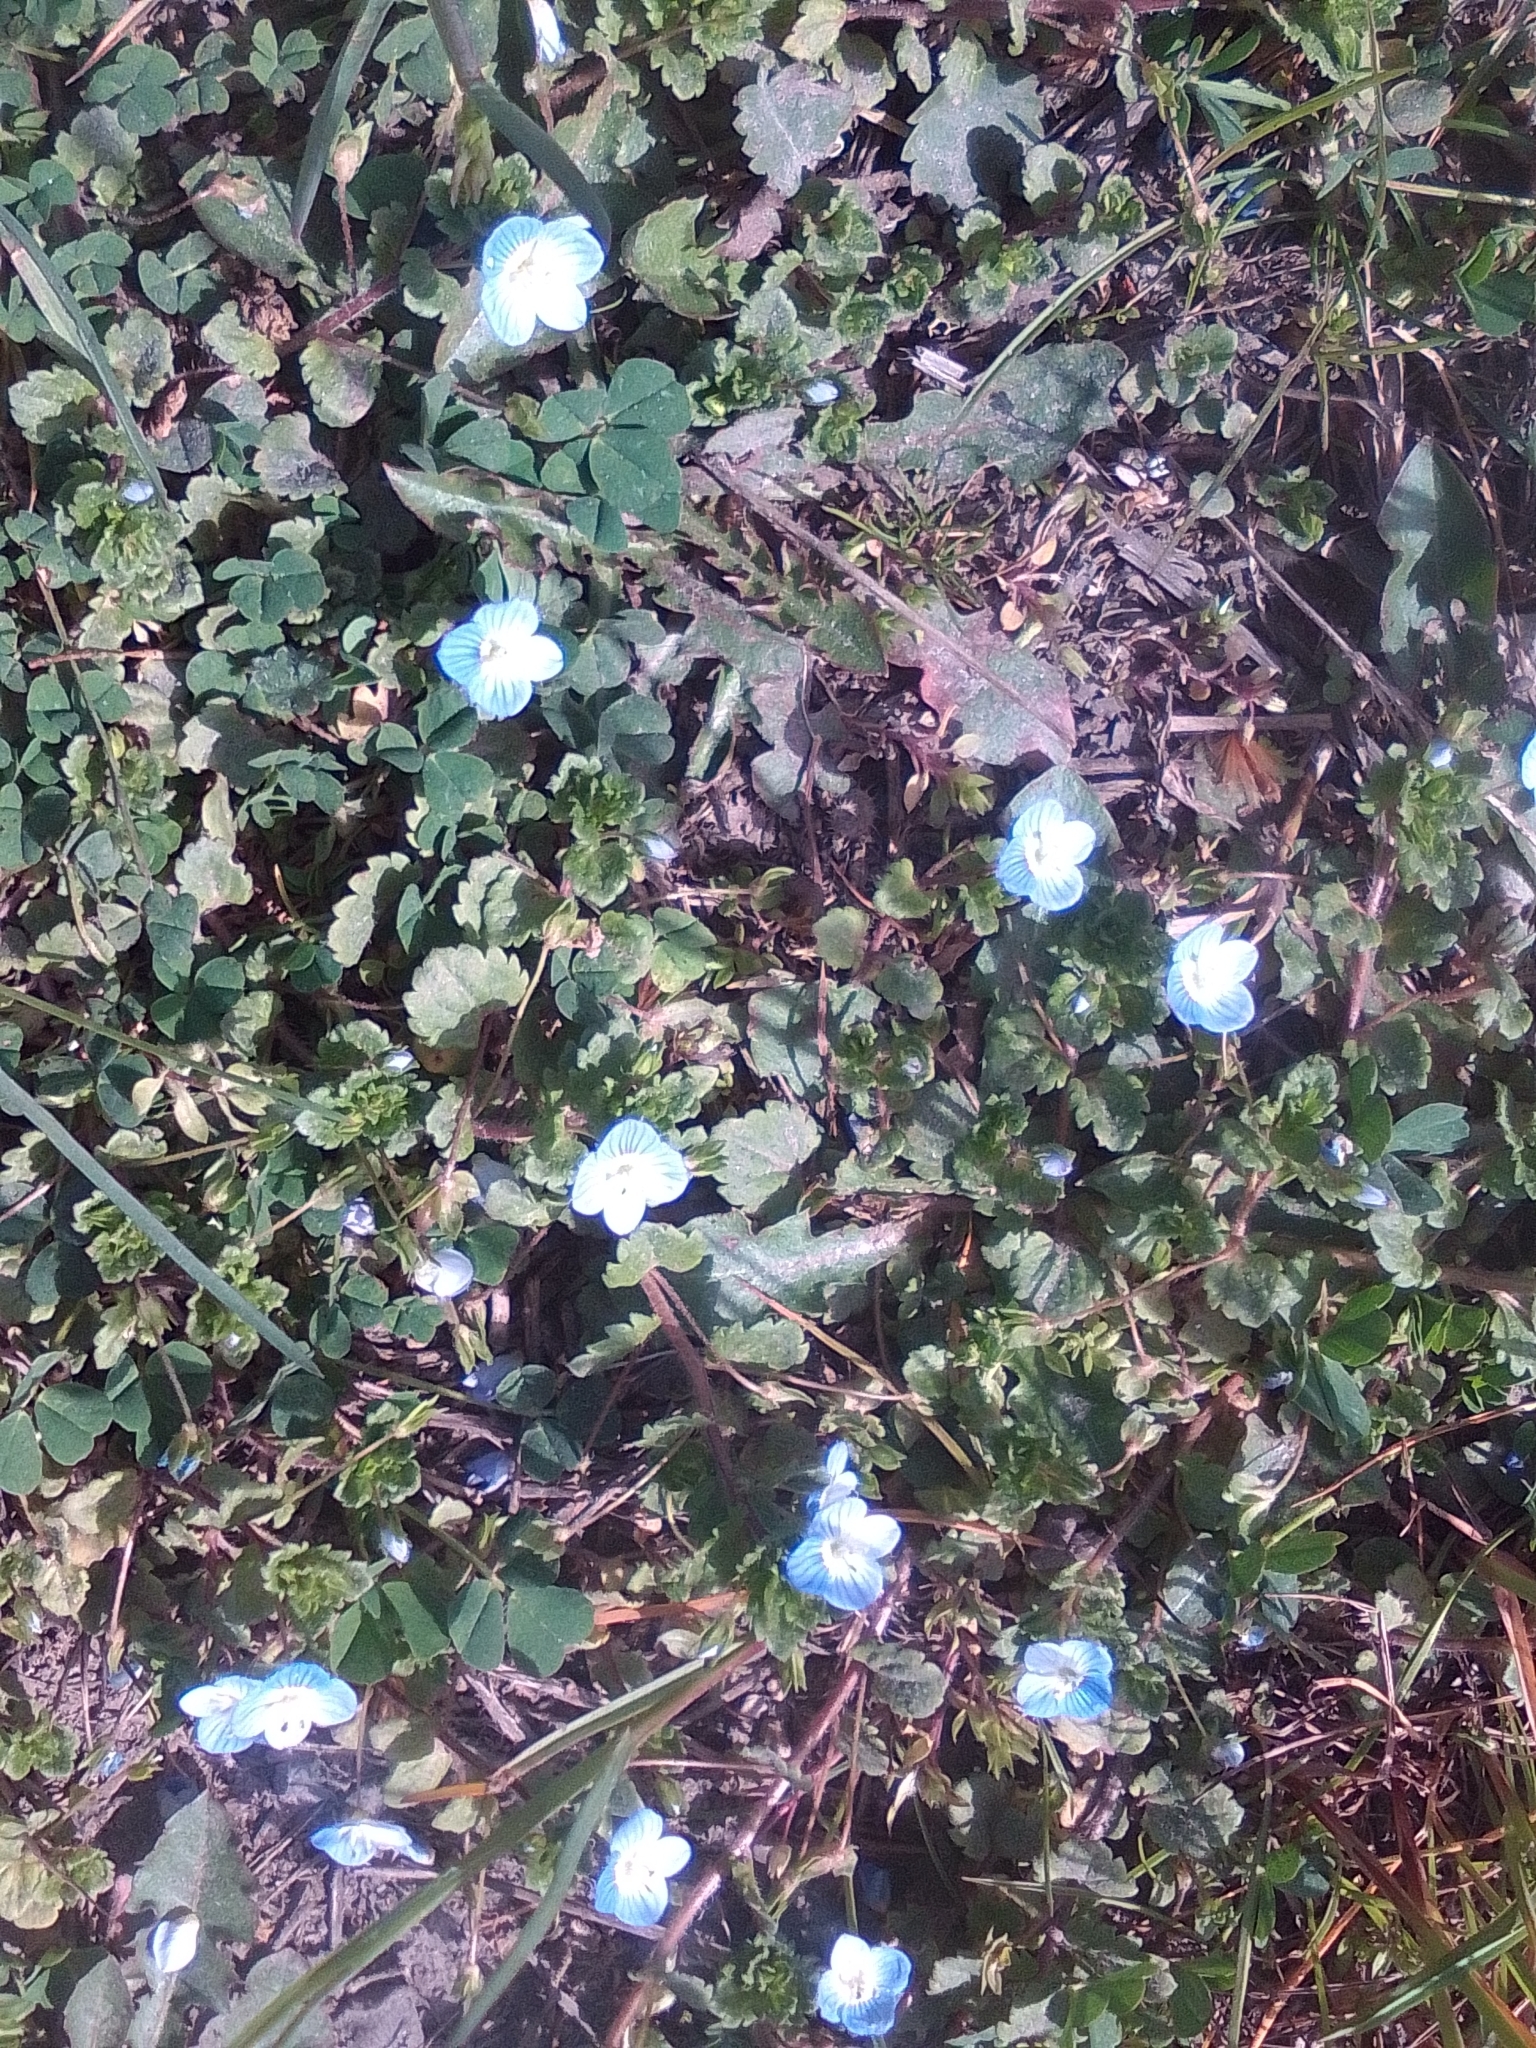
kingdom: Plantae
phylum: Tracheophyta
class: Magnoliopsida
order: Lamiales
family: Plantaginaceae
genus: Veronica
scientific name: Veronica persica
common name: Common field-speedwell
